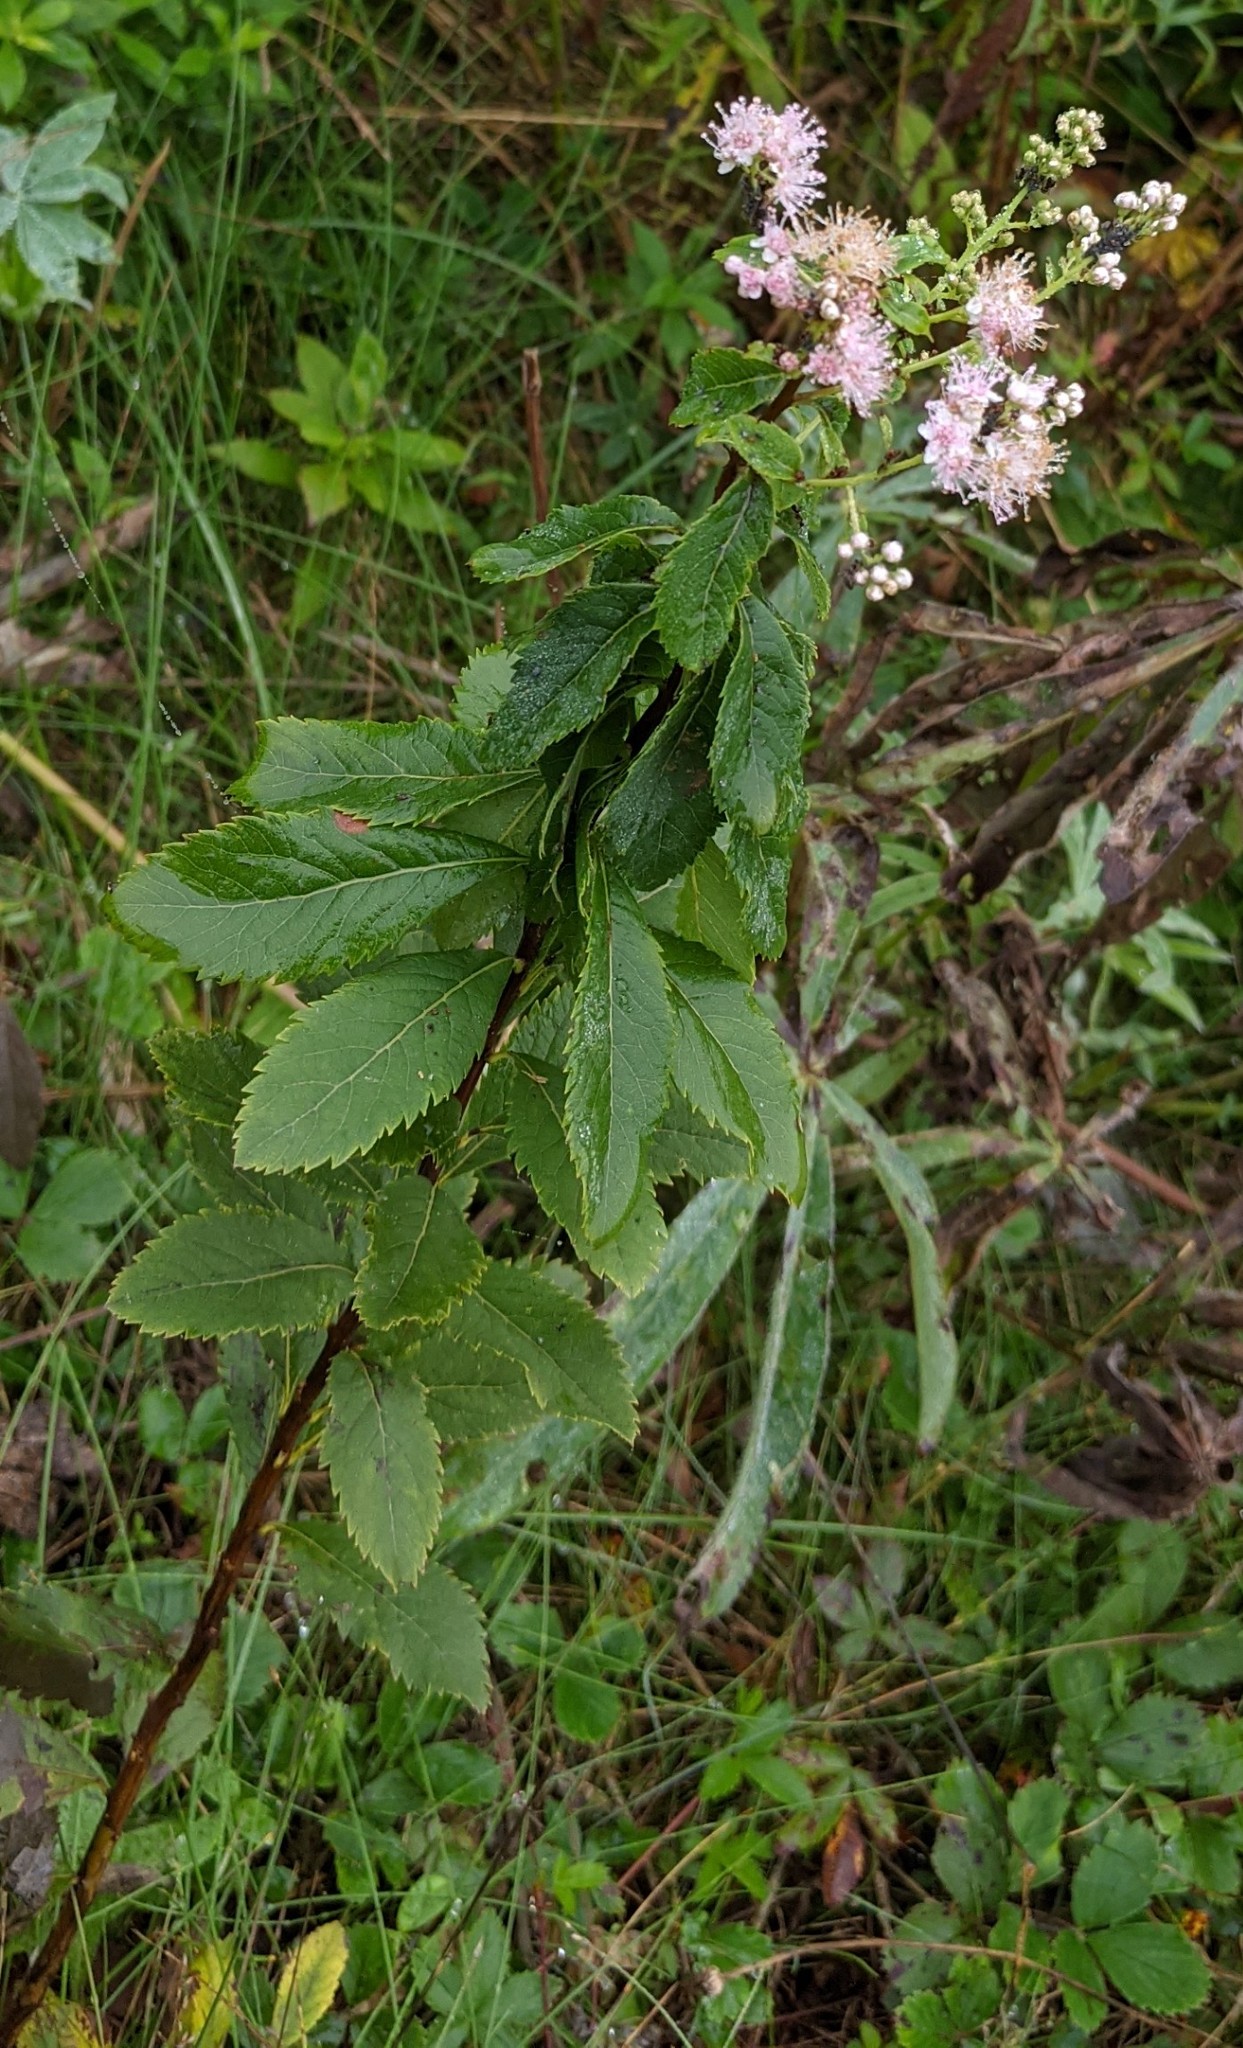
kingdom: Plantae
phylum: Tracheophyta
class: Magnoliopsida
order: Rosales
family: Rosaceae
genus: Spiraea
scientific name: Spiraea alba
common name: Pale bridewort
